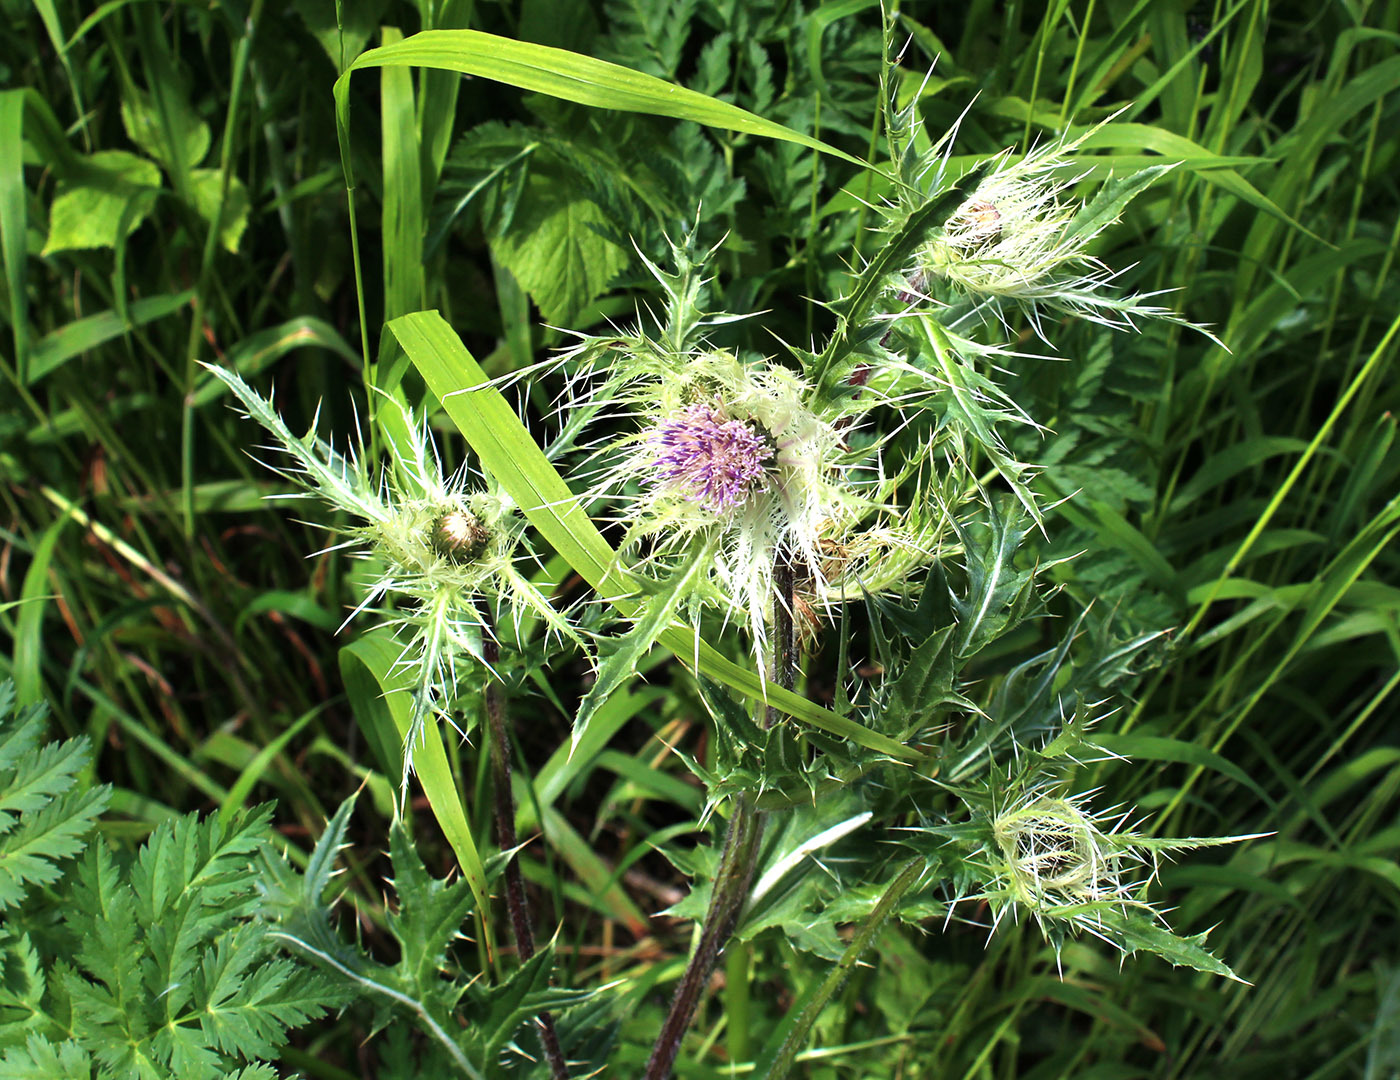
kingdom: Plantae
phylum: Tracheophyta
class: Magnoliopsida
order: Asterales
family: Asteraceae
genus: Cirsium
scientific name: Cirsium obvallatum
